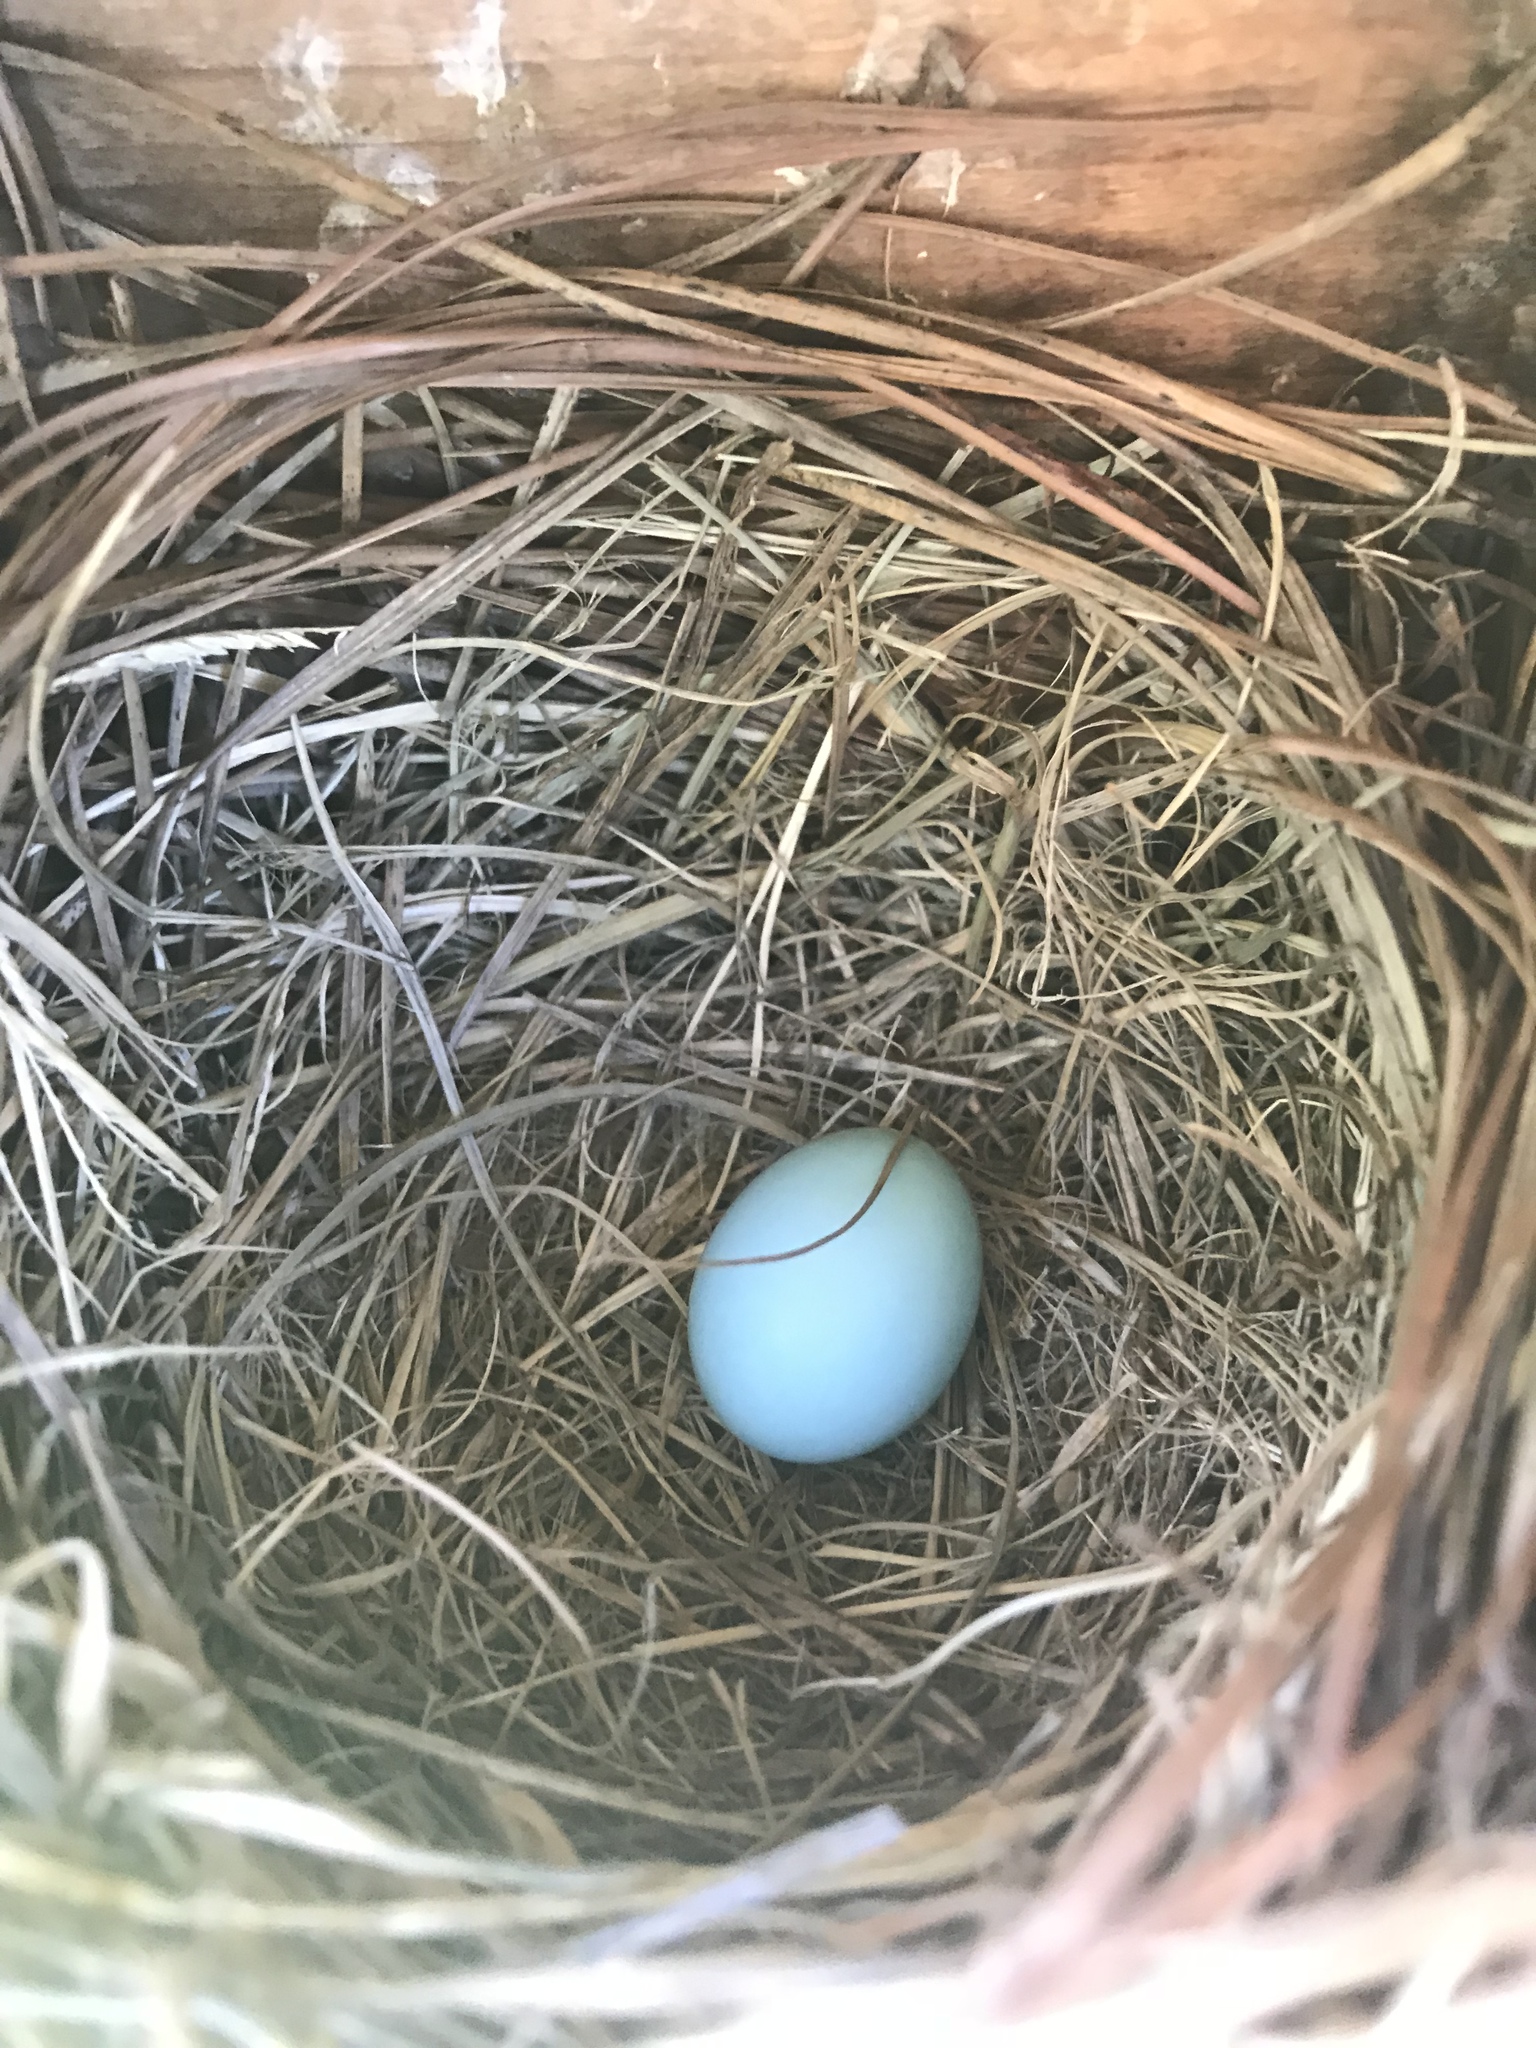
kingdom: Animalia
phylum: Chordata
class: Aves
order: Passeriformes
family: Turdidae
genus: Sialia
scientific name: Sialia sialis
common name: Eastern bluebird
